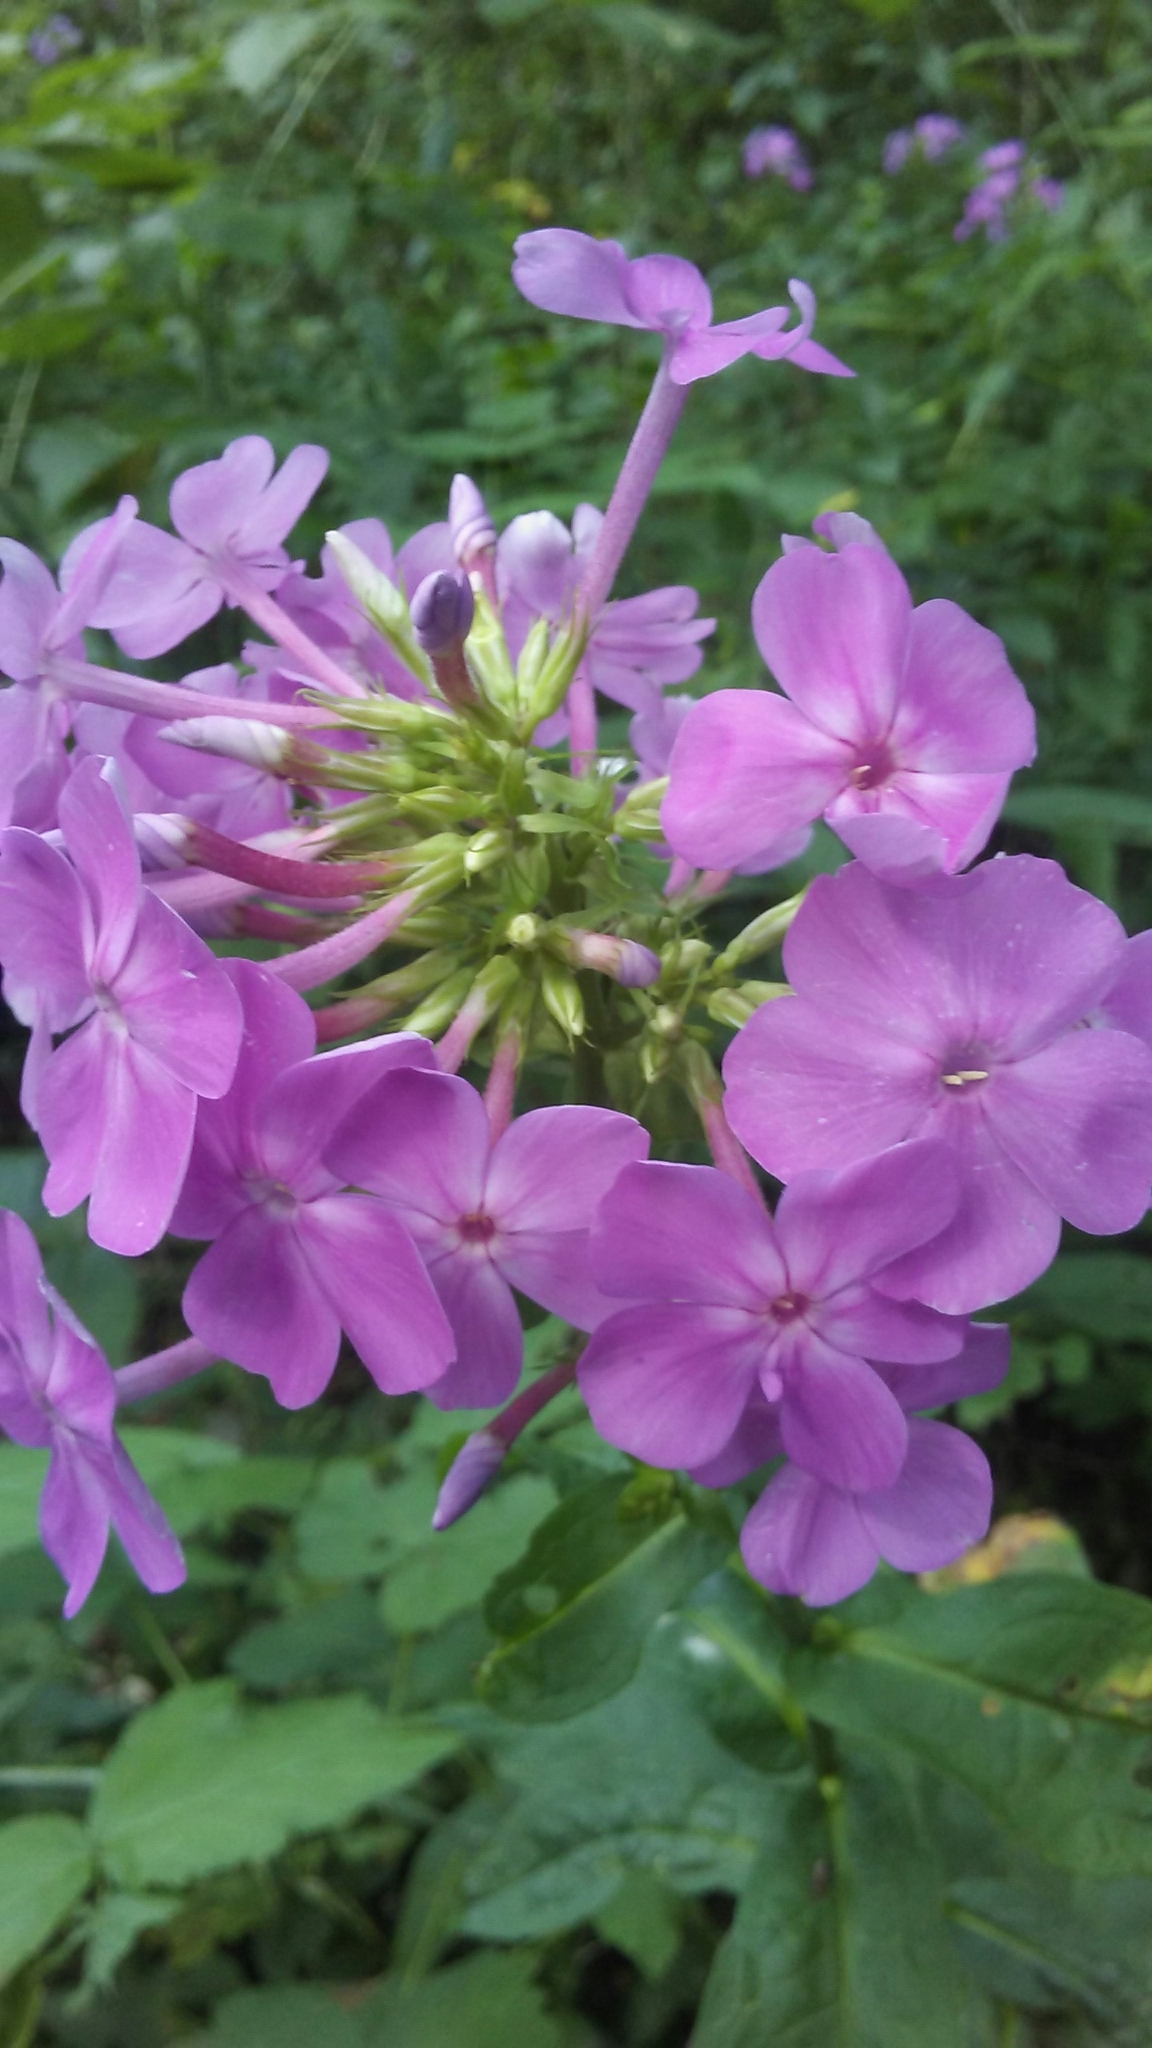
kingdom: Plantae
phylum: Tracheophyta
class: Magnoliopsida
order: Ericales
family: Polemoniaceae
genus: Phlox
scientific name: Phlox paniculata
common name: Fall phlox
